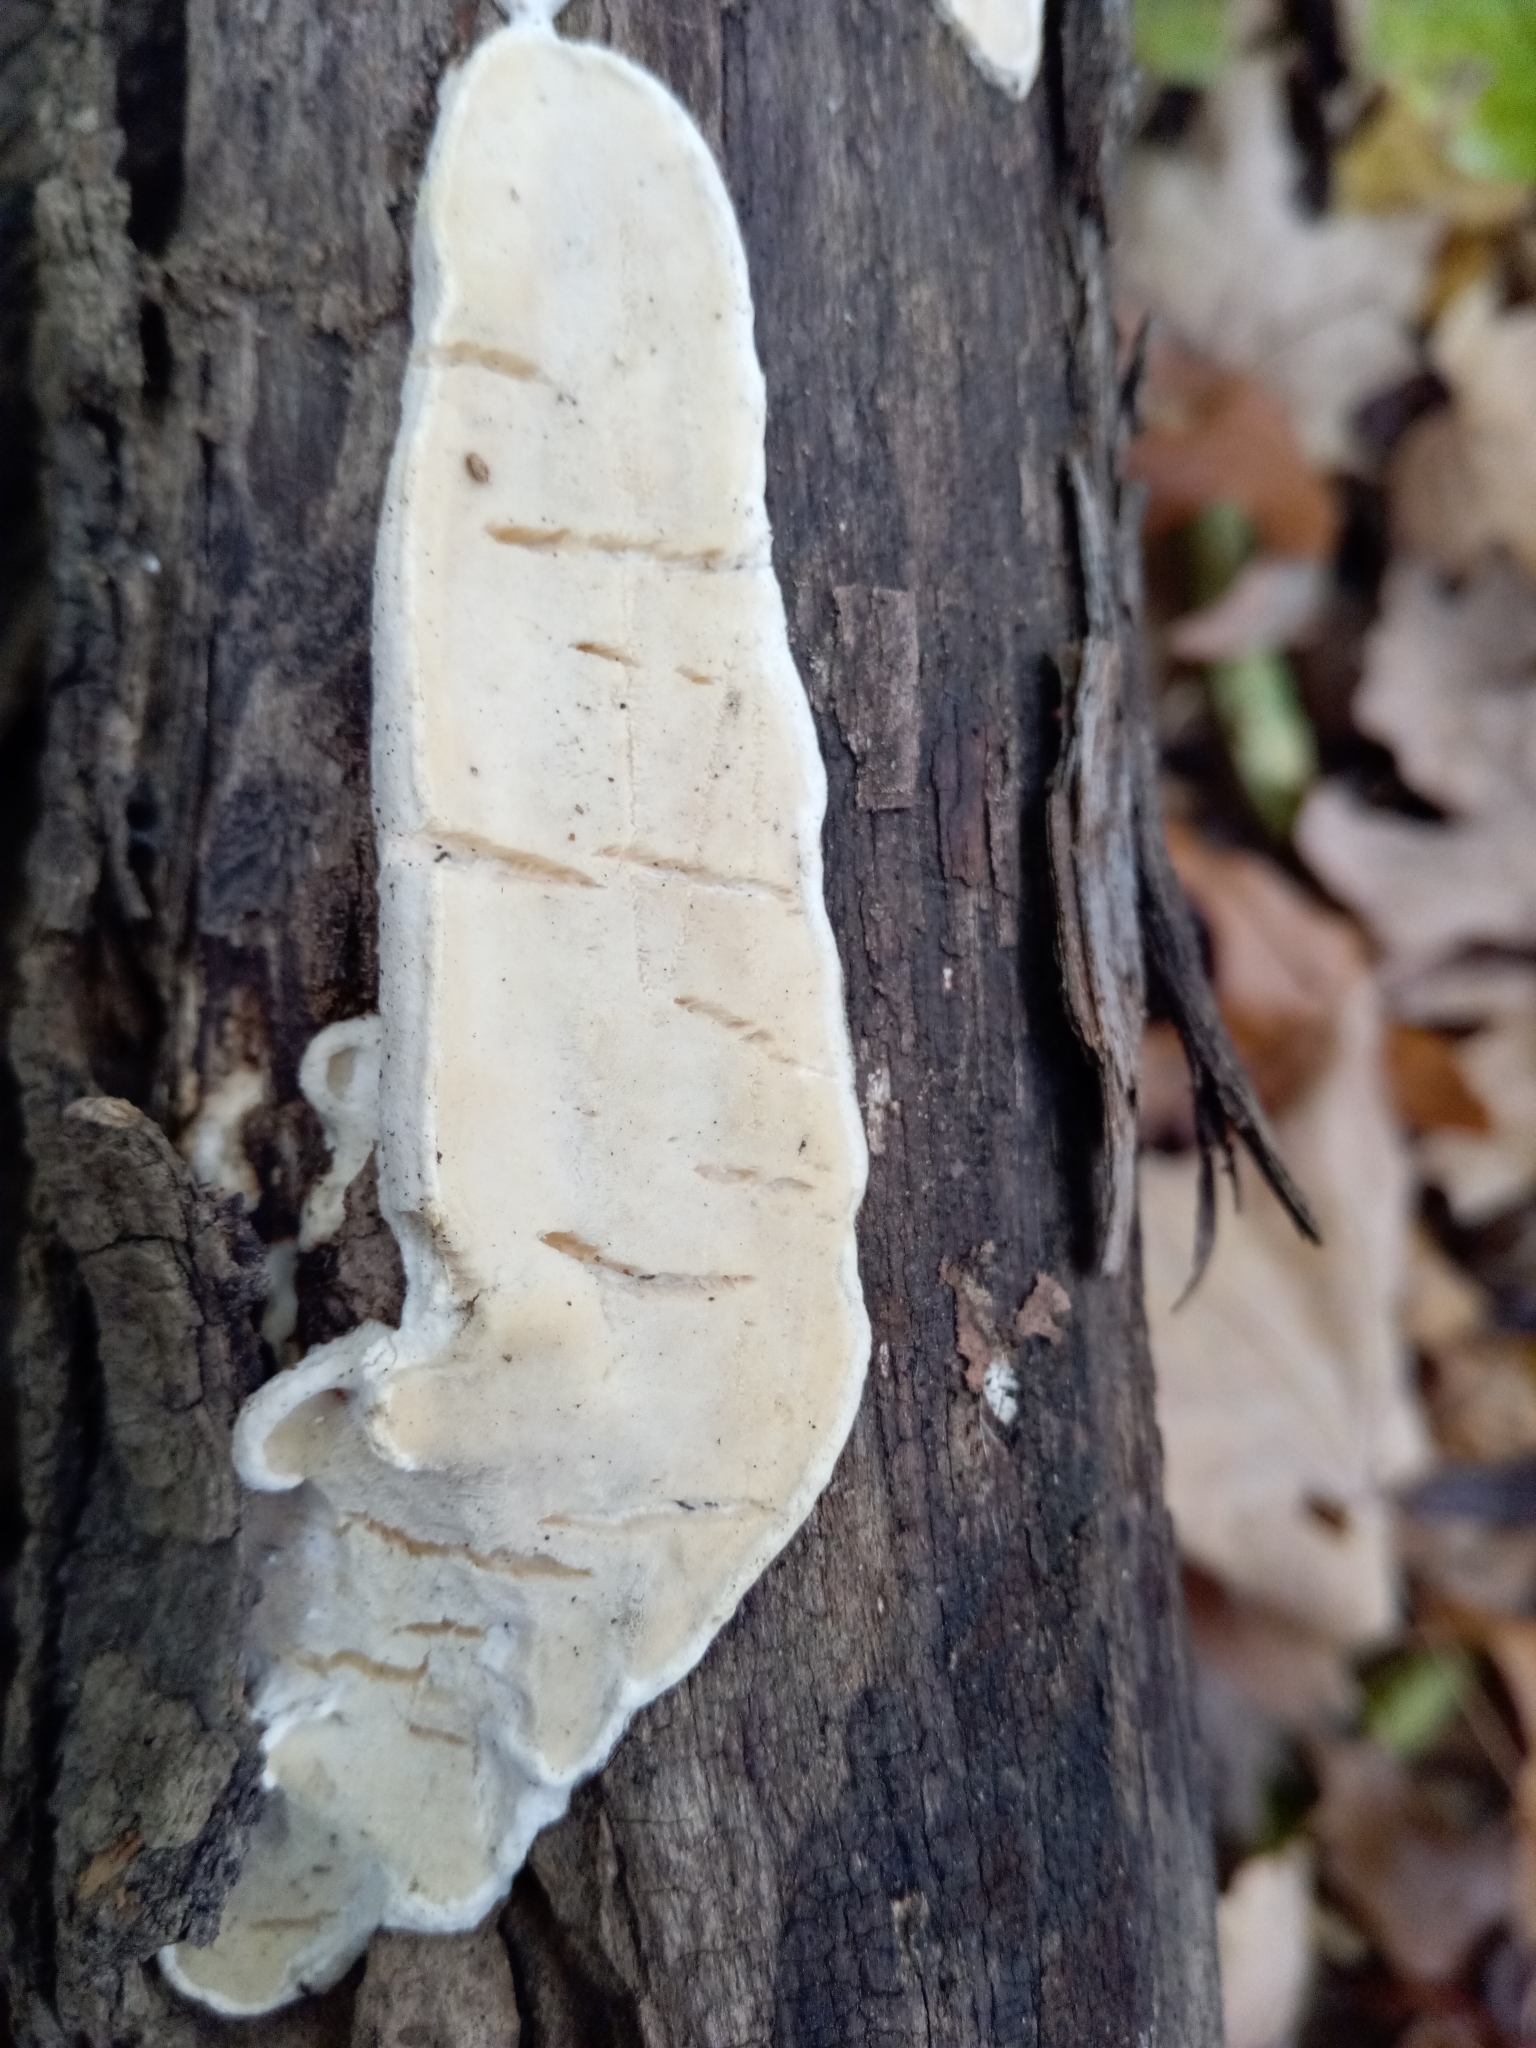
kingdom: Fungi
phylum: Basidiomycota
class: Agaricomycetes
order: Polyporales
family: Incrustoporiaceae
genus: Skeletocutis
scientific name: Skeletocutis nivea
